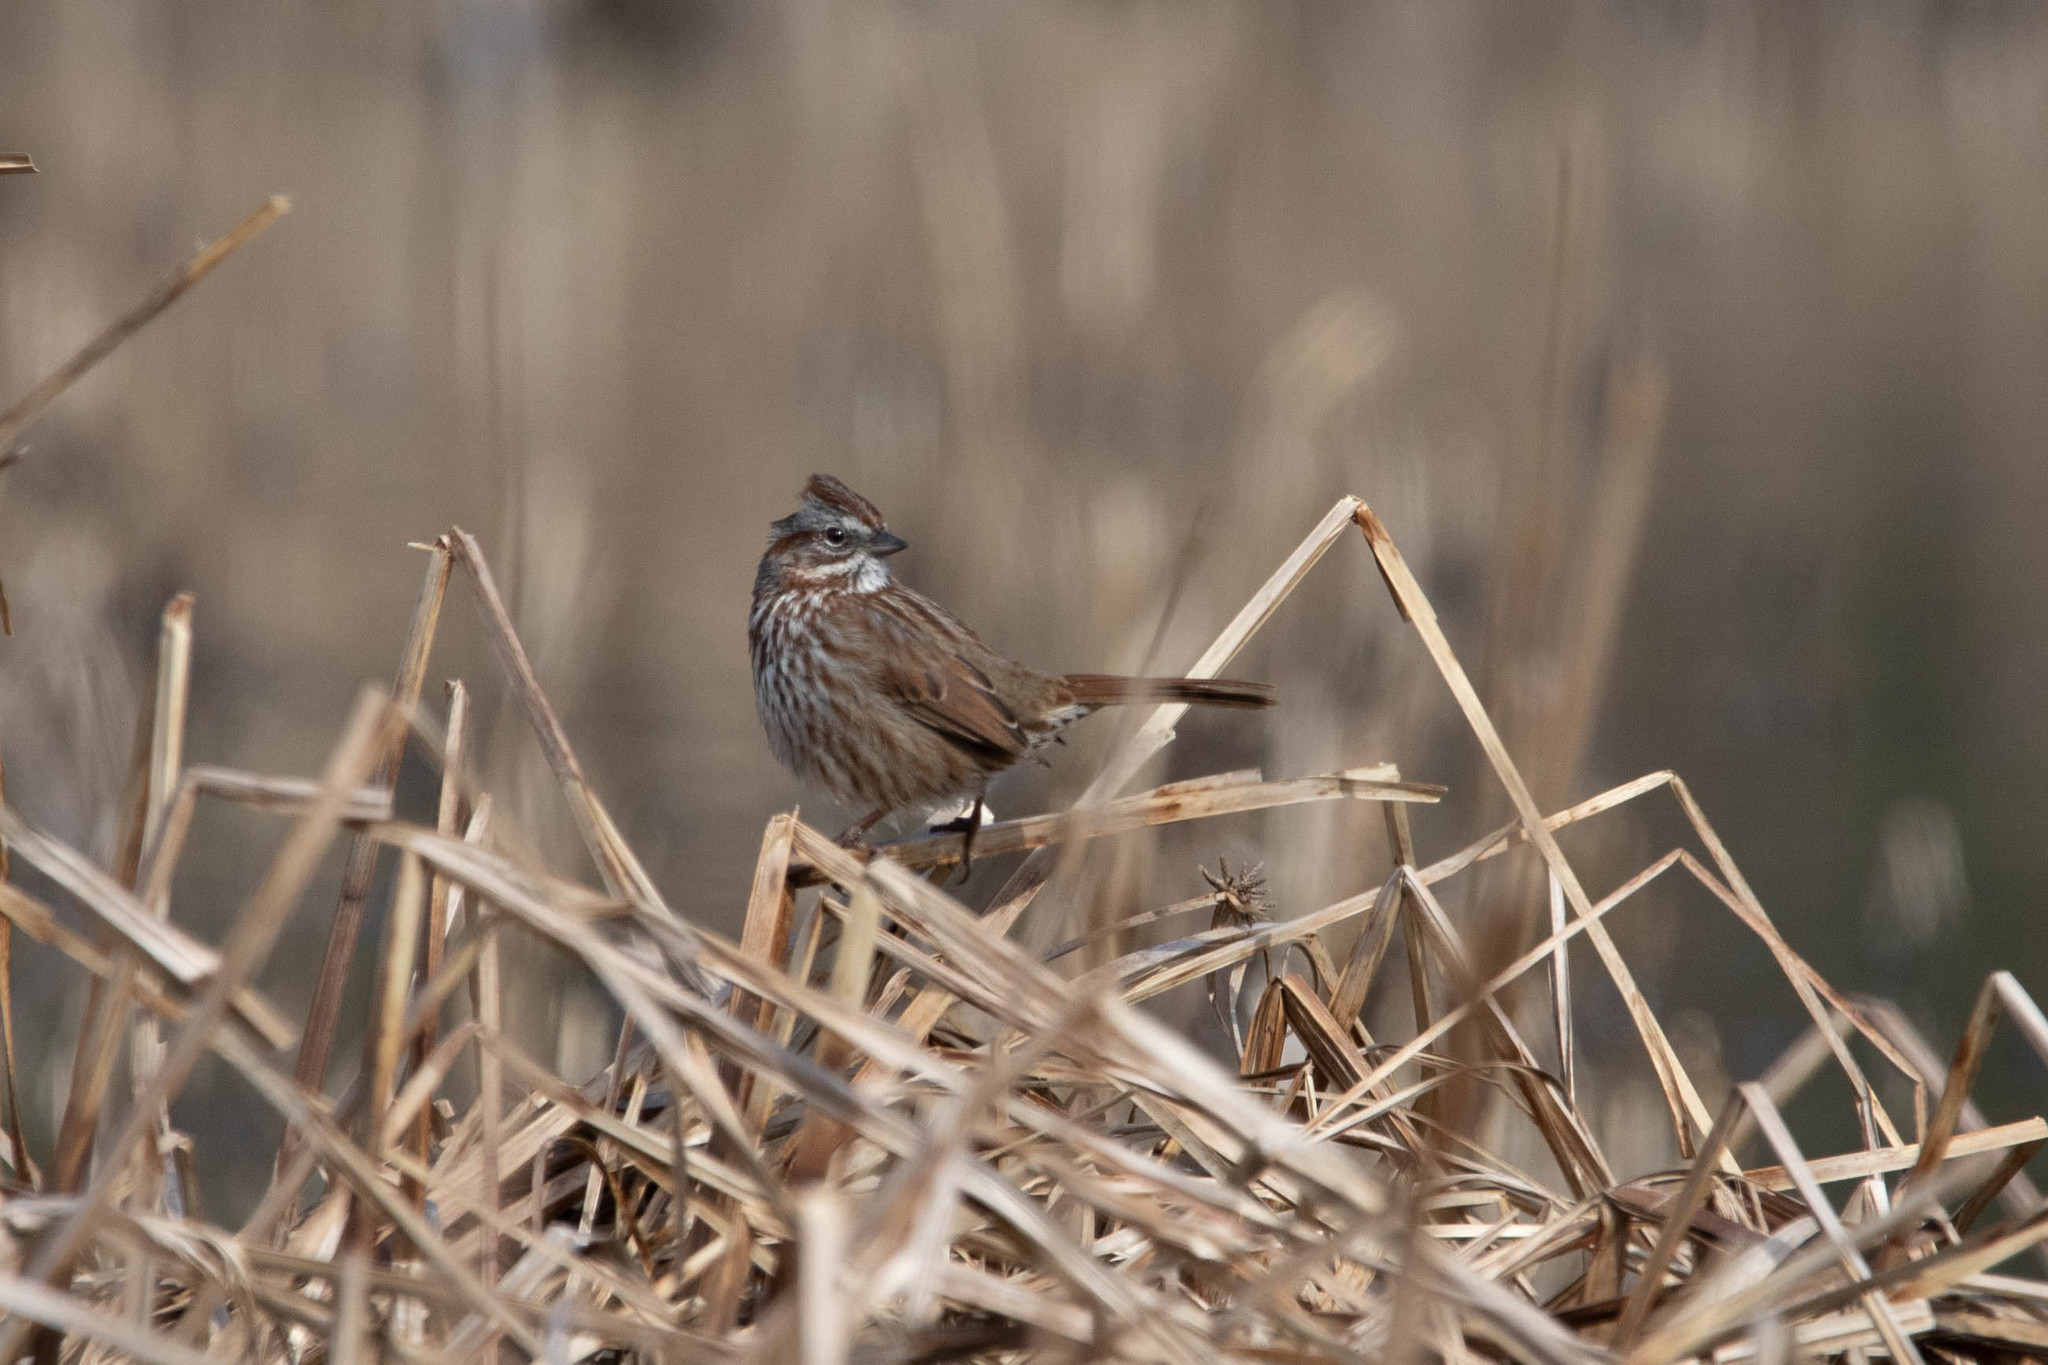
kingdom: Animalia
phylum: Chordata
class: Aves
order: Passeriformes
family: Passerellidae
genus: Melospiza
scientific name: Melospiza melodia
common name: Song sparrow
